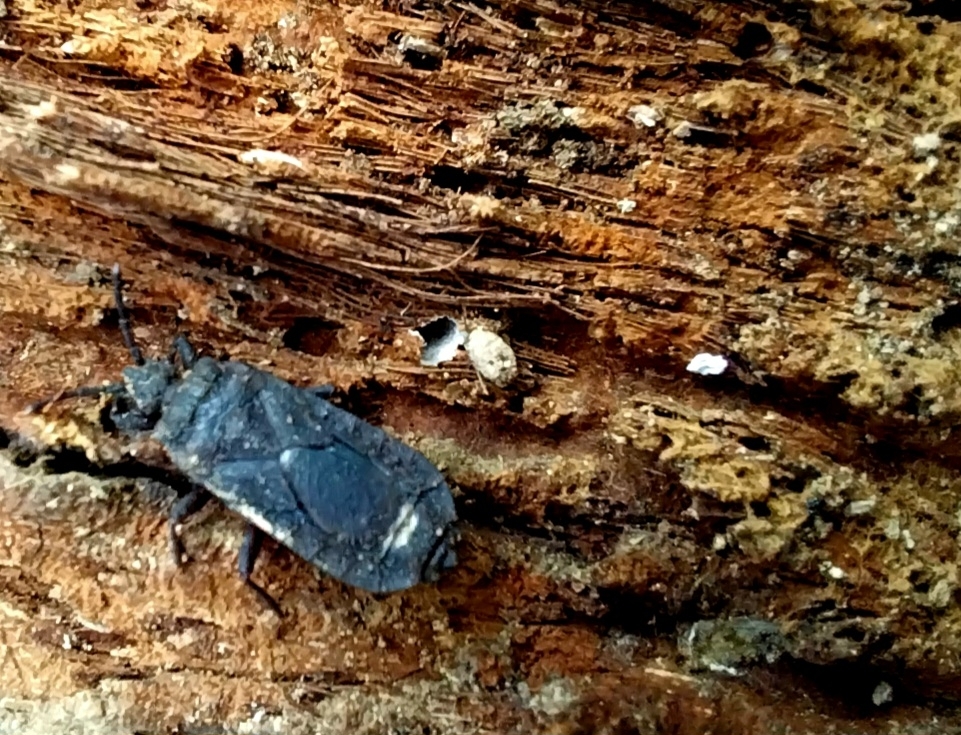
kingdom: Animalia
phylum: Arthropoda
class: Insecta
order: Hemiptera
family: Aradidae
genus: Brachyrhynchus
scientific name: Brachyrhynchus membranaceus
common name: Aradid flat bug
